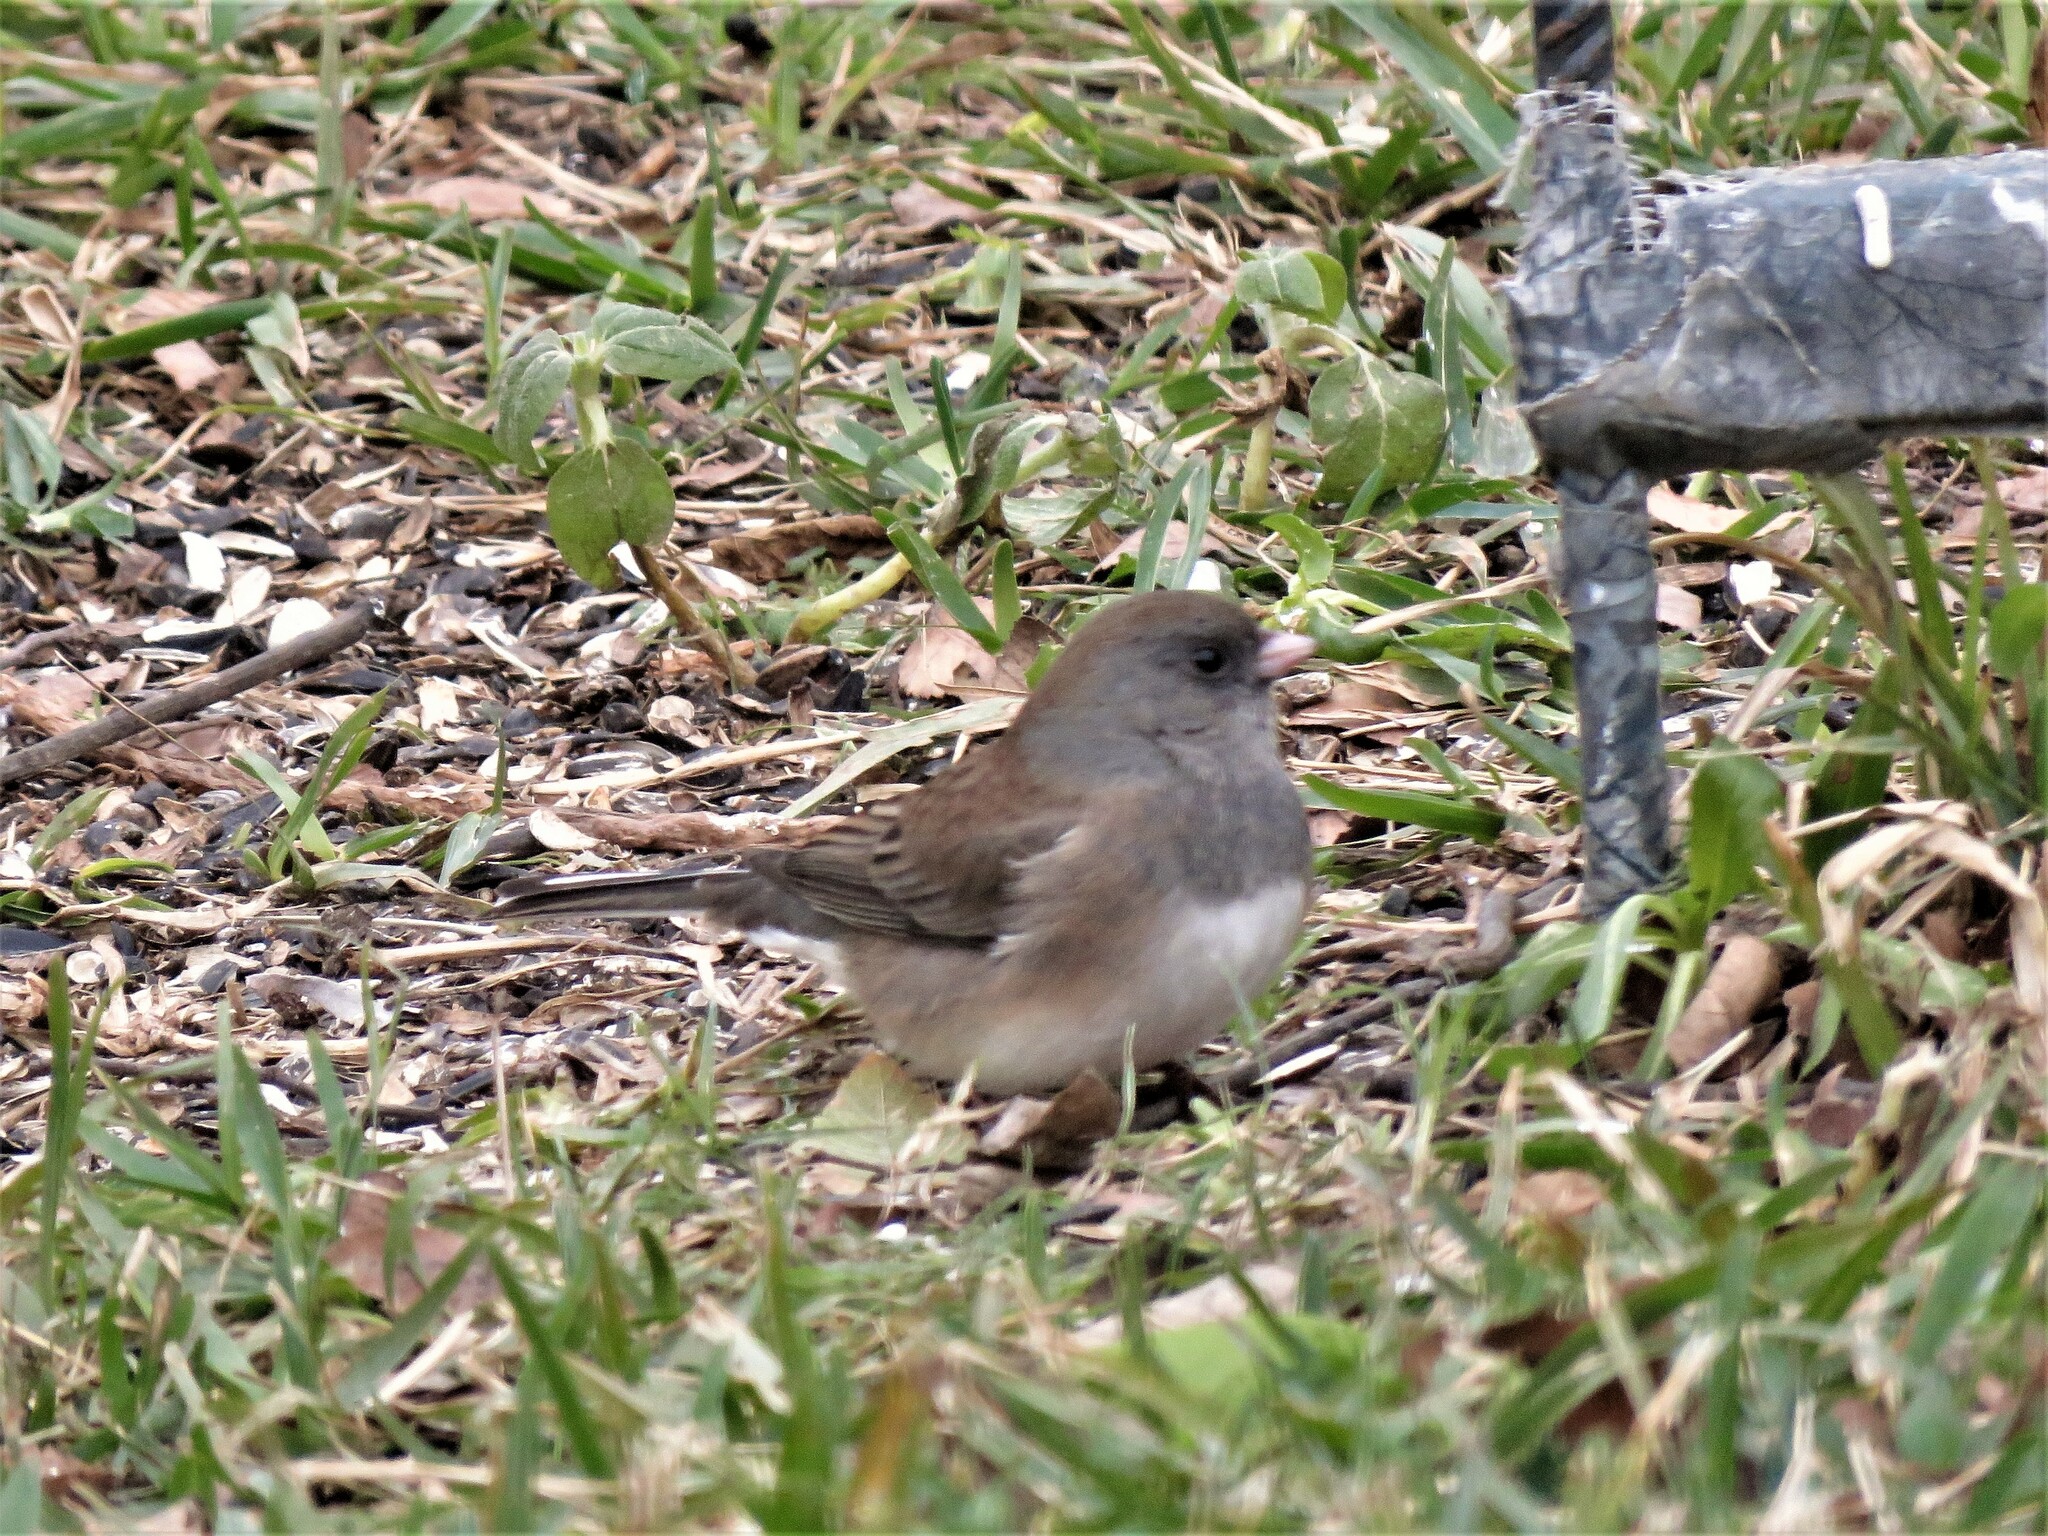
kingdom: Animalia
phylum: Chordata
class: Aves
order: Passeriformes
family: Passerellidae
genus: Junco
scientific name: Junco hyemalis
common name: Dark-eyed junco
